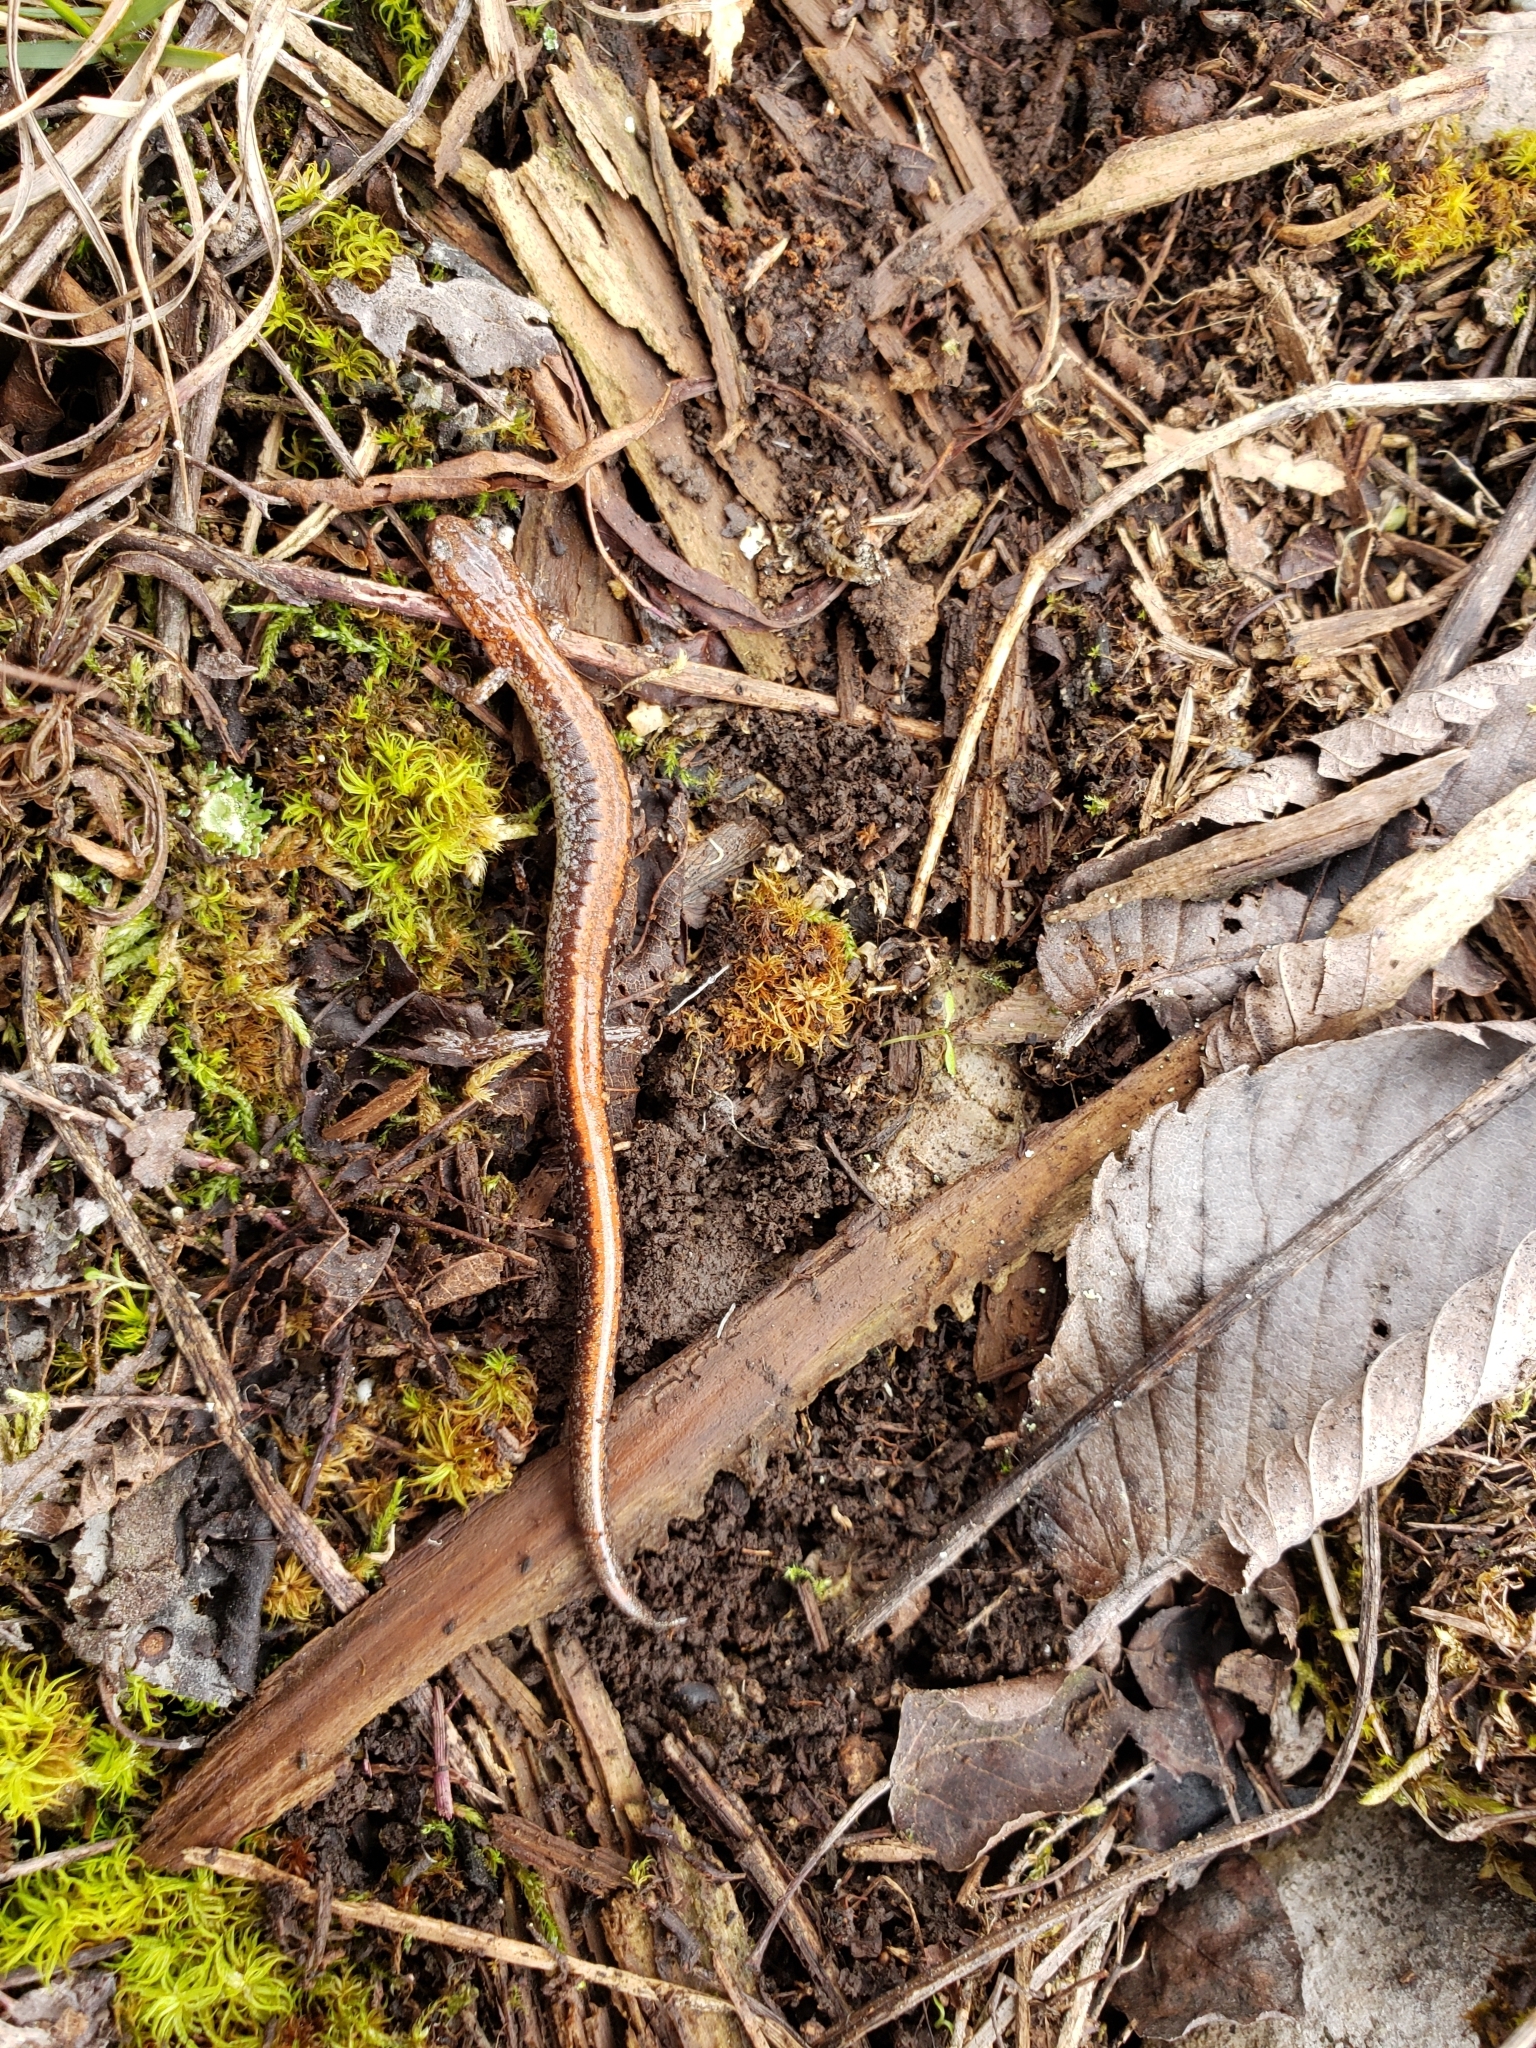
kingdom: Animalia
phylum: Chordata
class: Amphibia
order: Caudata
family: Plethodontidae
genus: Plethodon
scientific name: Plethodon cinereus
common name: Redback salamander
